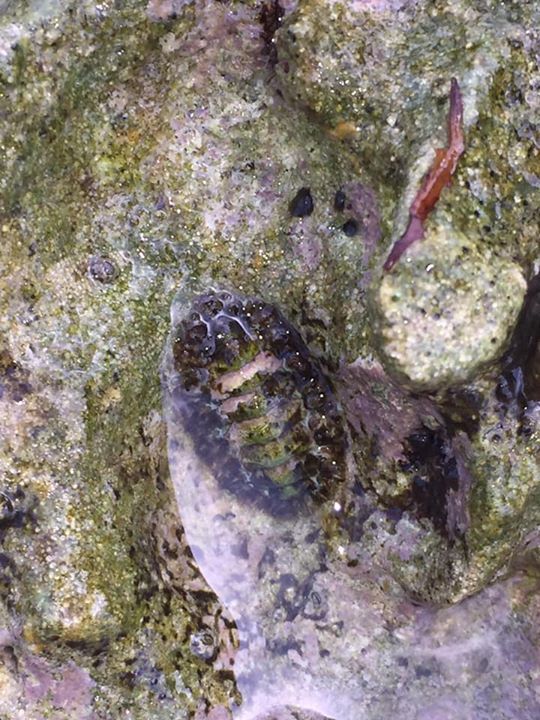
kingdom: Animalia
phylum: Mollusca
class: Polyplacophora
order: Chitonida
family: Tonicellidae
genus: Ceratozona
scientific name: Ceratozona squalida
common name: Rough-girdled chiton
